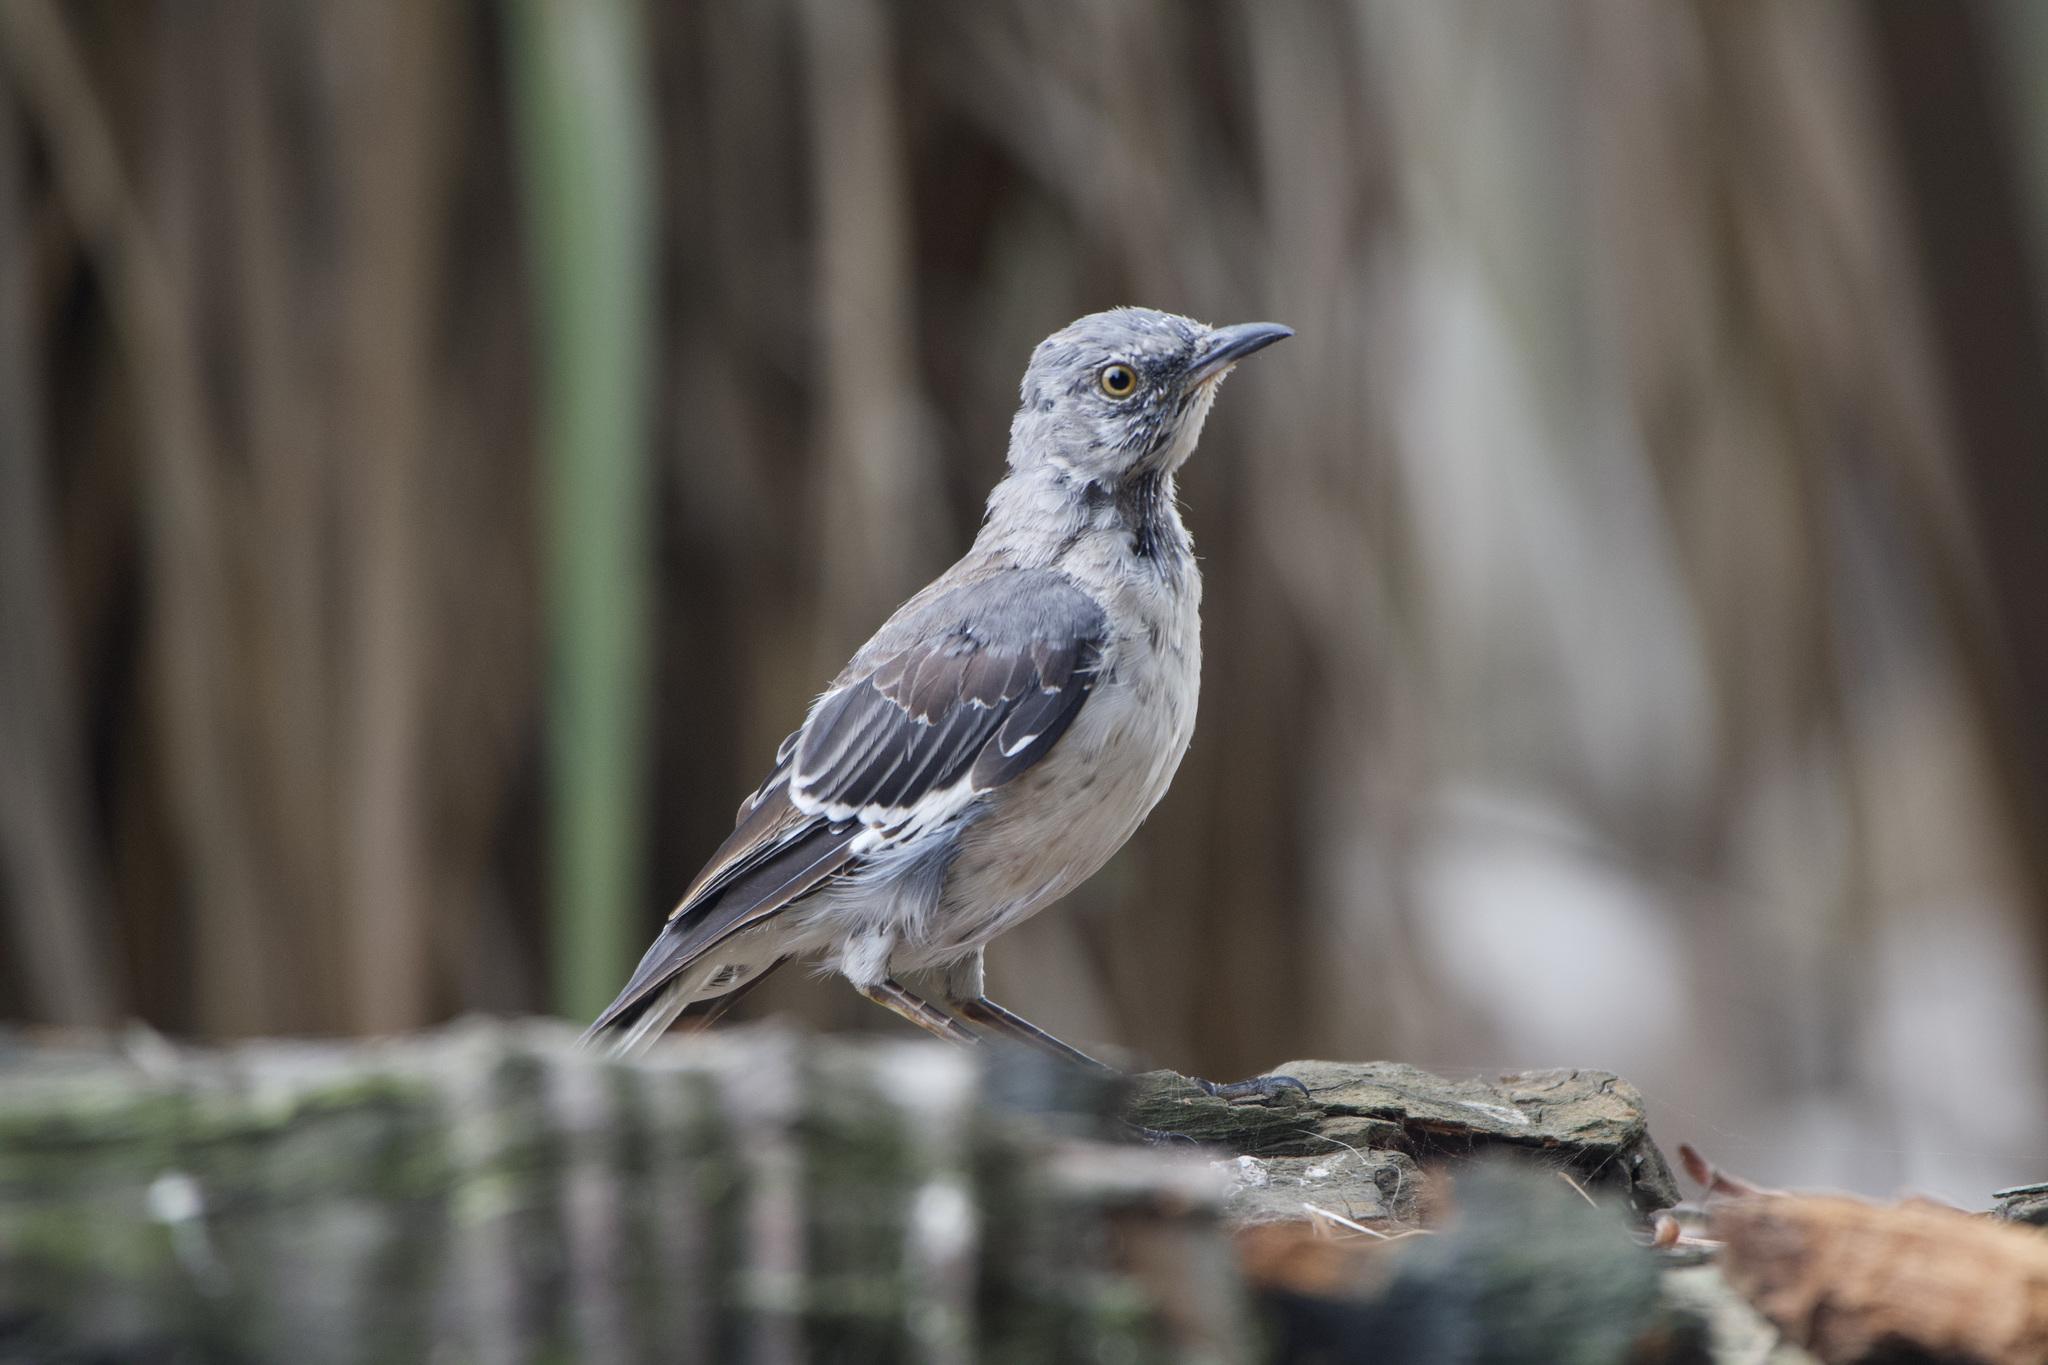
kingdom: Animalia
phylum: Chordata
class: Aves
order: Passeriformes
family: Mimidae
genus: Mimus
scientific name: Mimus polyglottos
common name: Northern mockingbird
